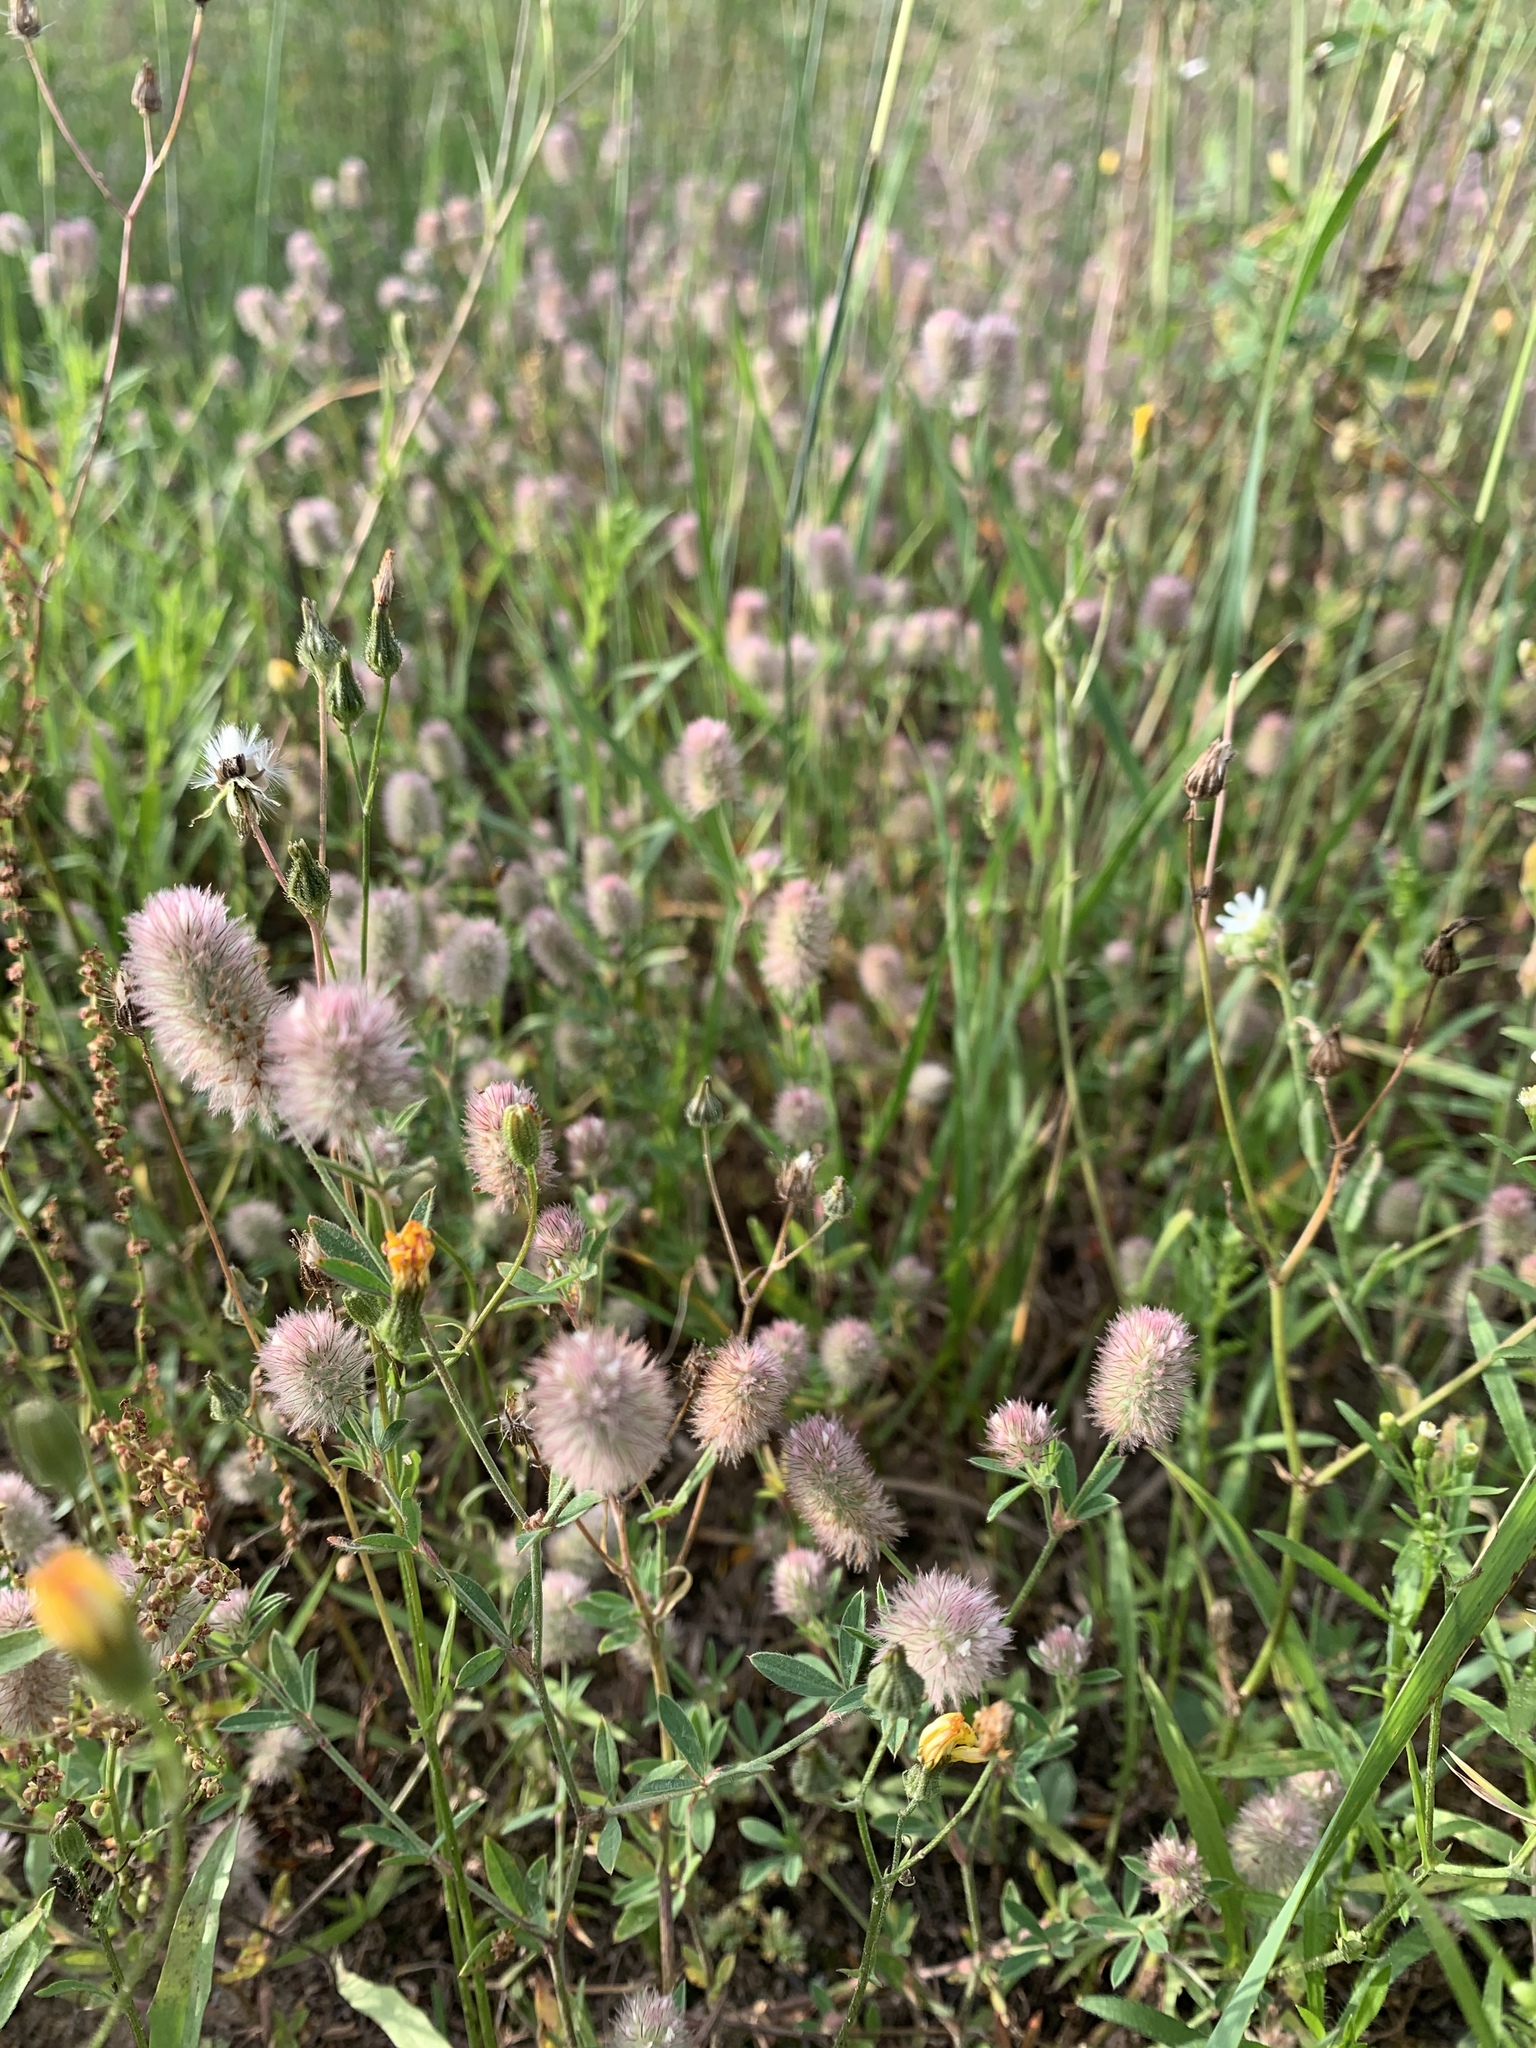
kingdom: Plantae
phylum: Tracheophyta
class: Magnoliopsida
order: Fabales
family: Fabaceae
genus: Trifolium
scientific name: Trifolium arvense
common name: Hare's-foot clover
